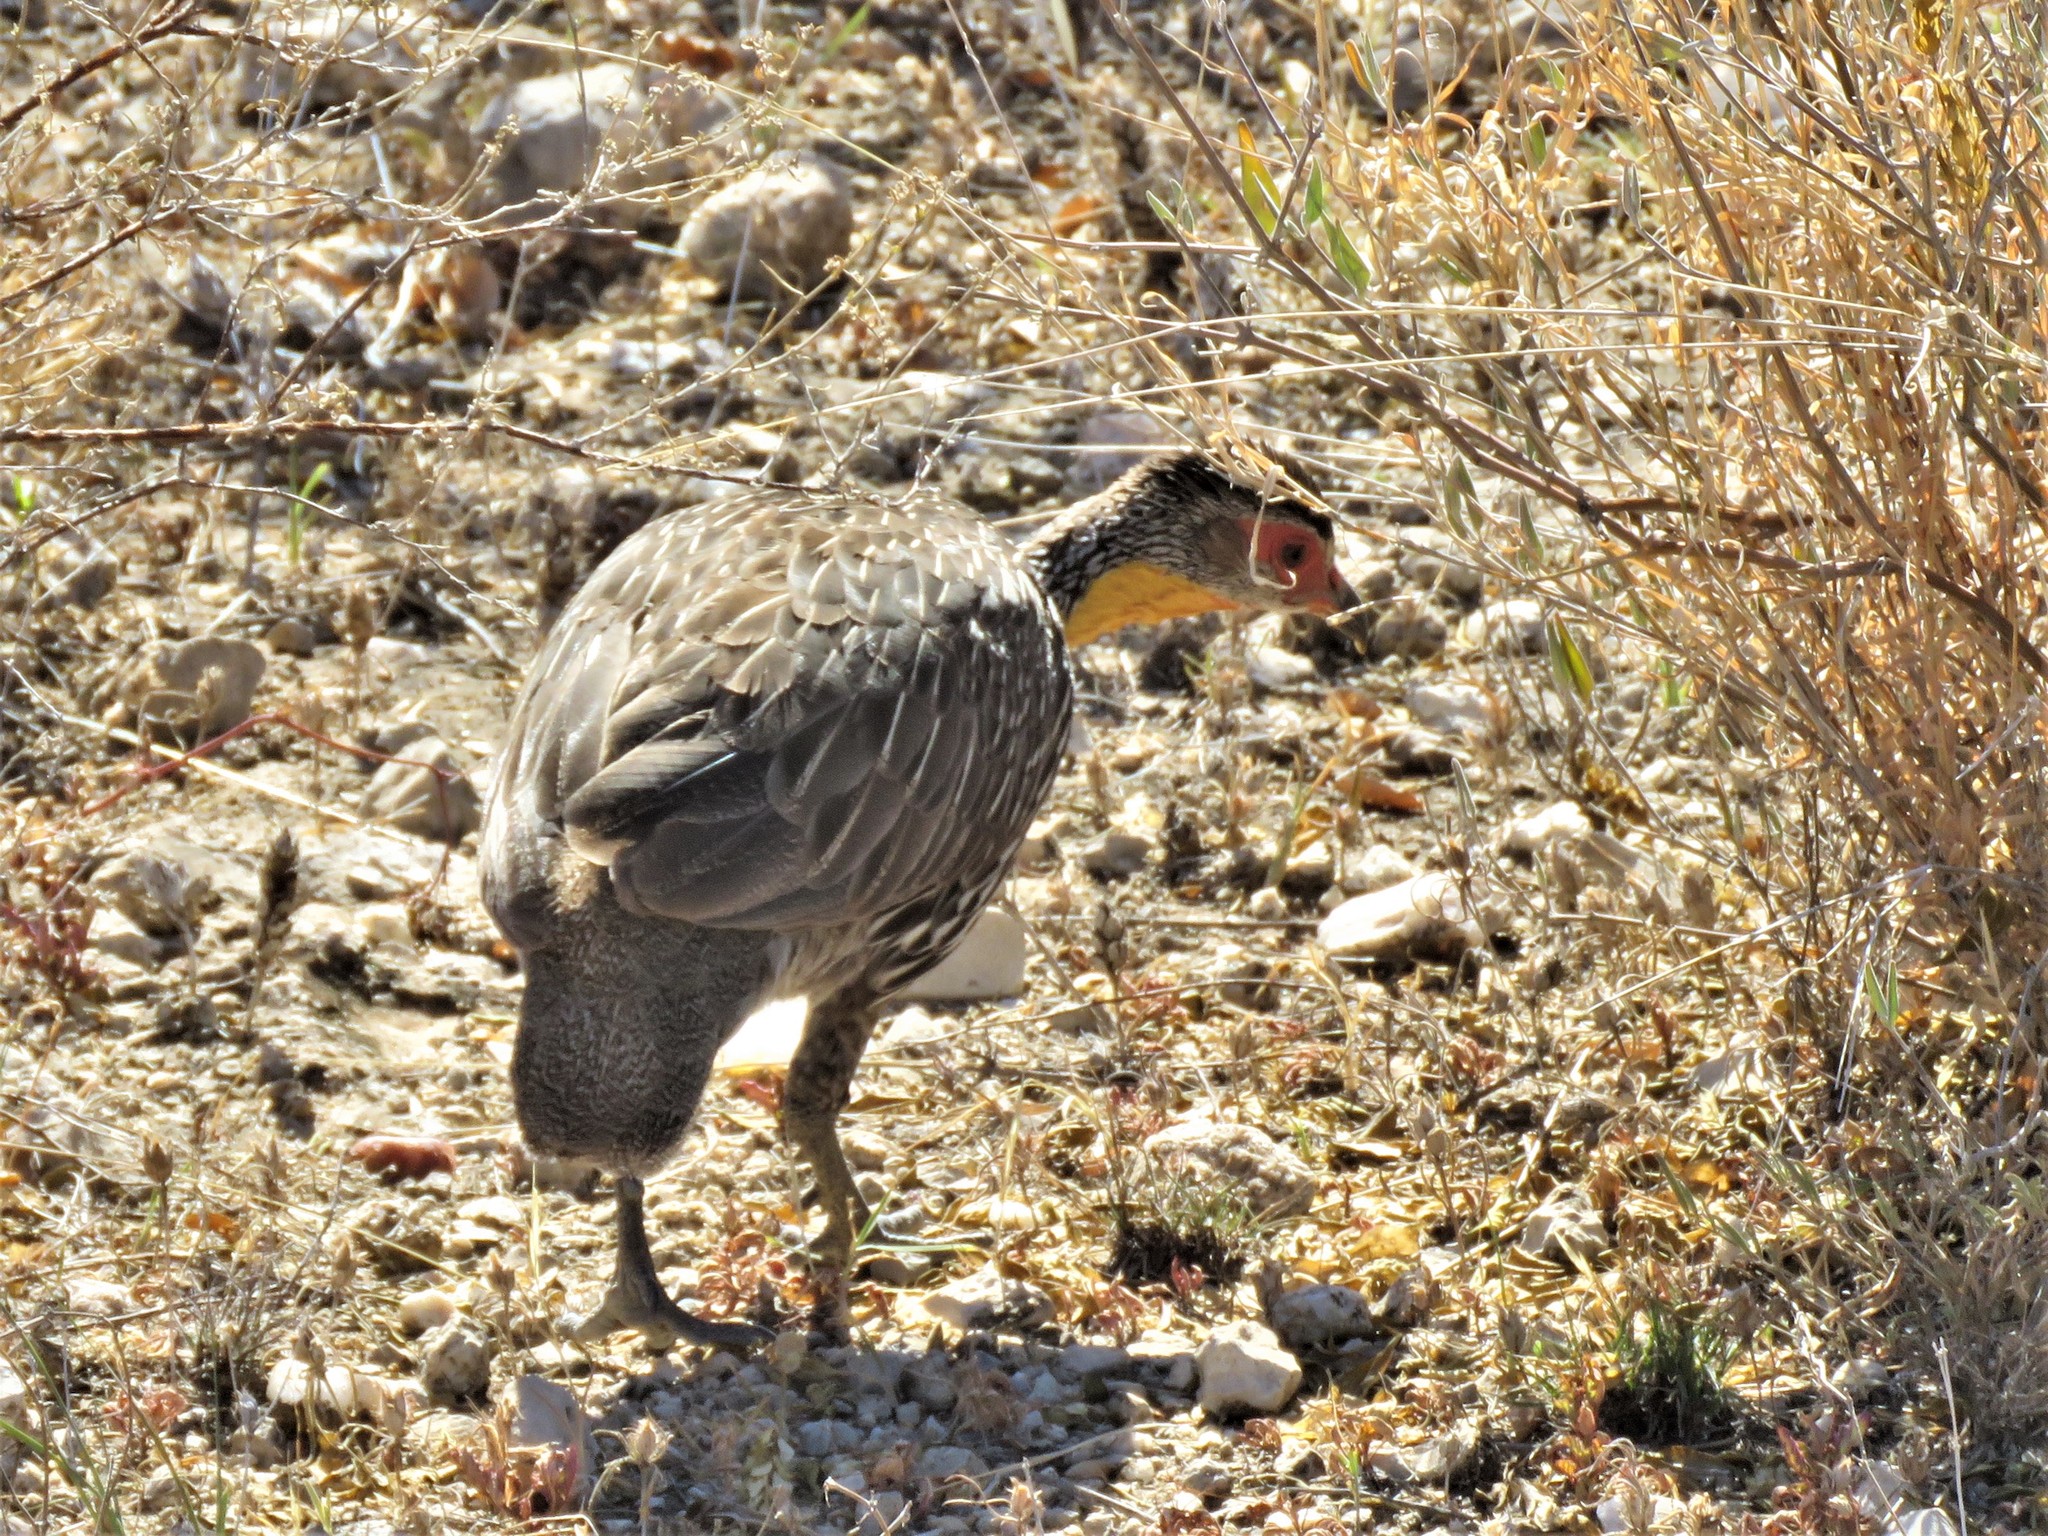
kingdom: Animalia
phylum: Chordata
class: Aves
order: Galliformes
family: Phasianidae
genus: Pternistis
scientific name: Pternistis leucoscepus
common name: Yellow-necked spurfowl
